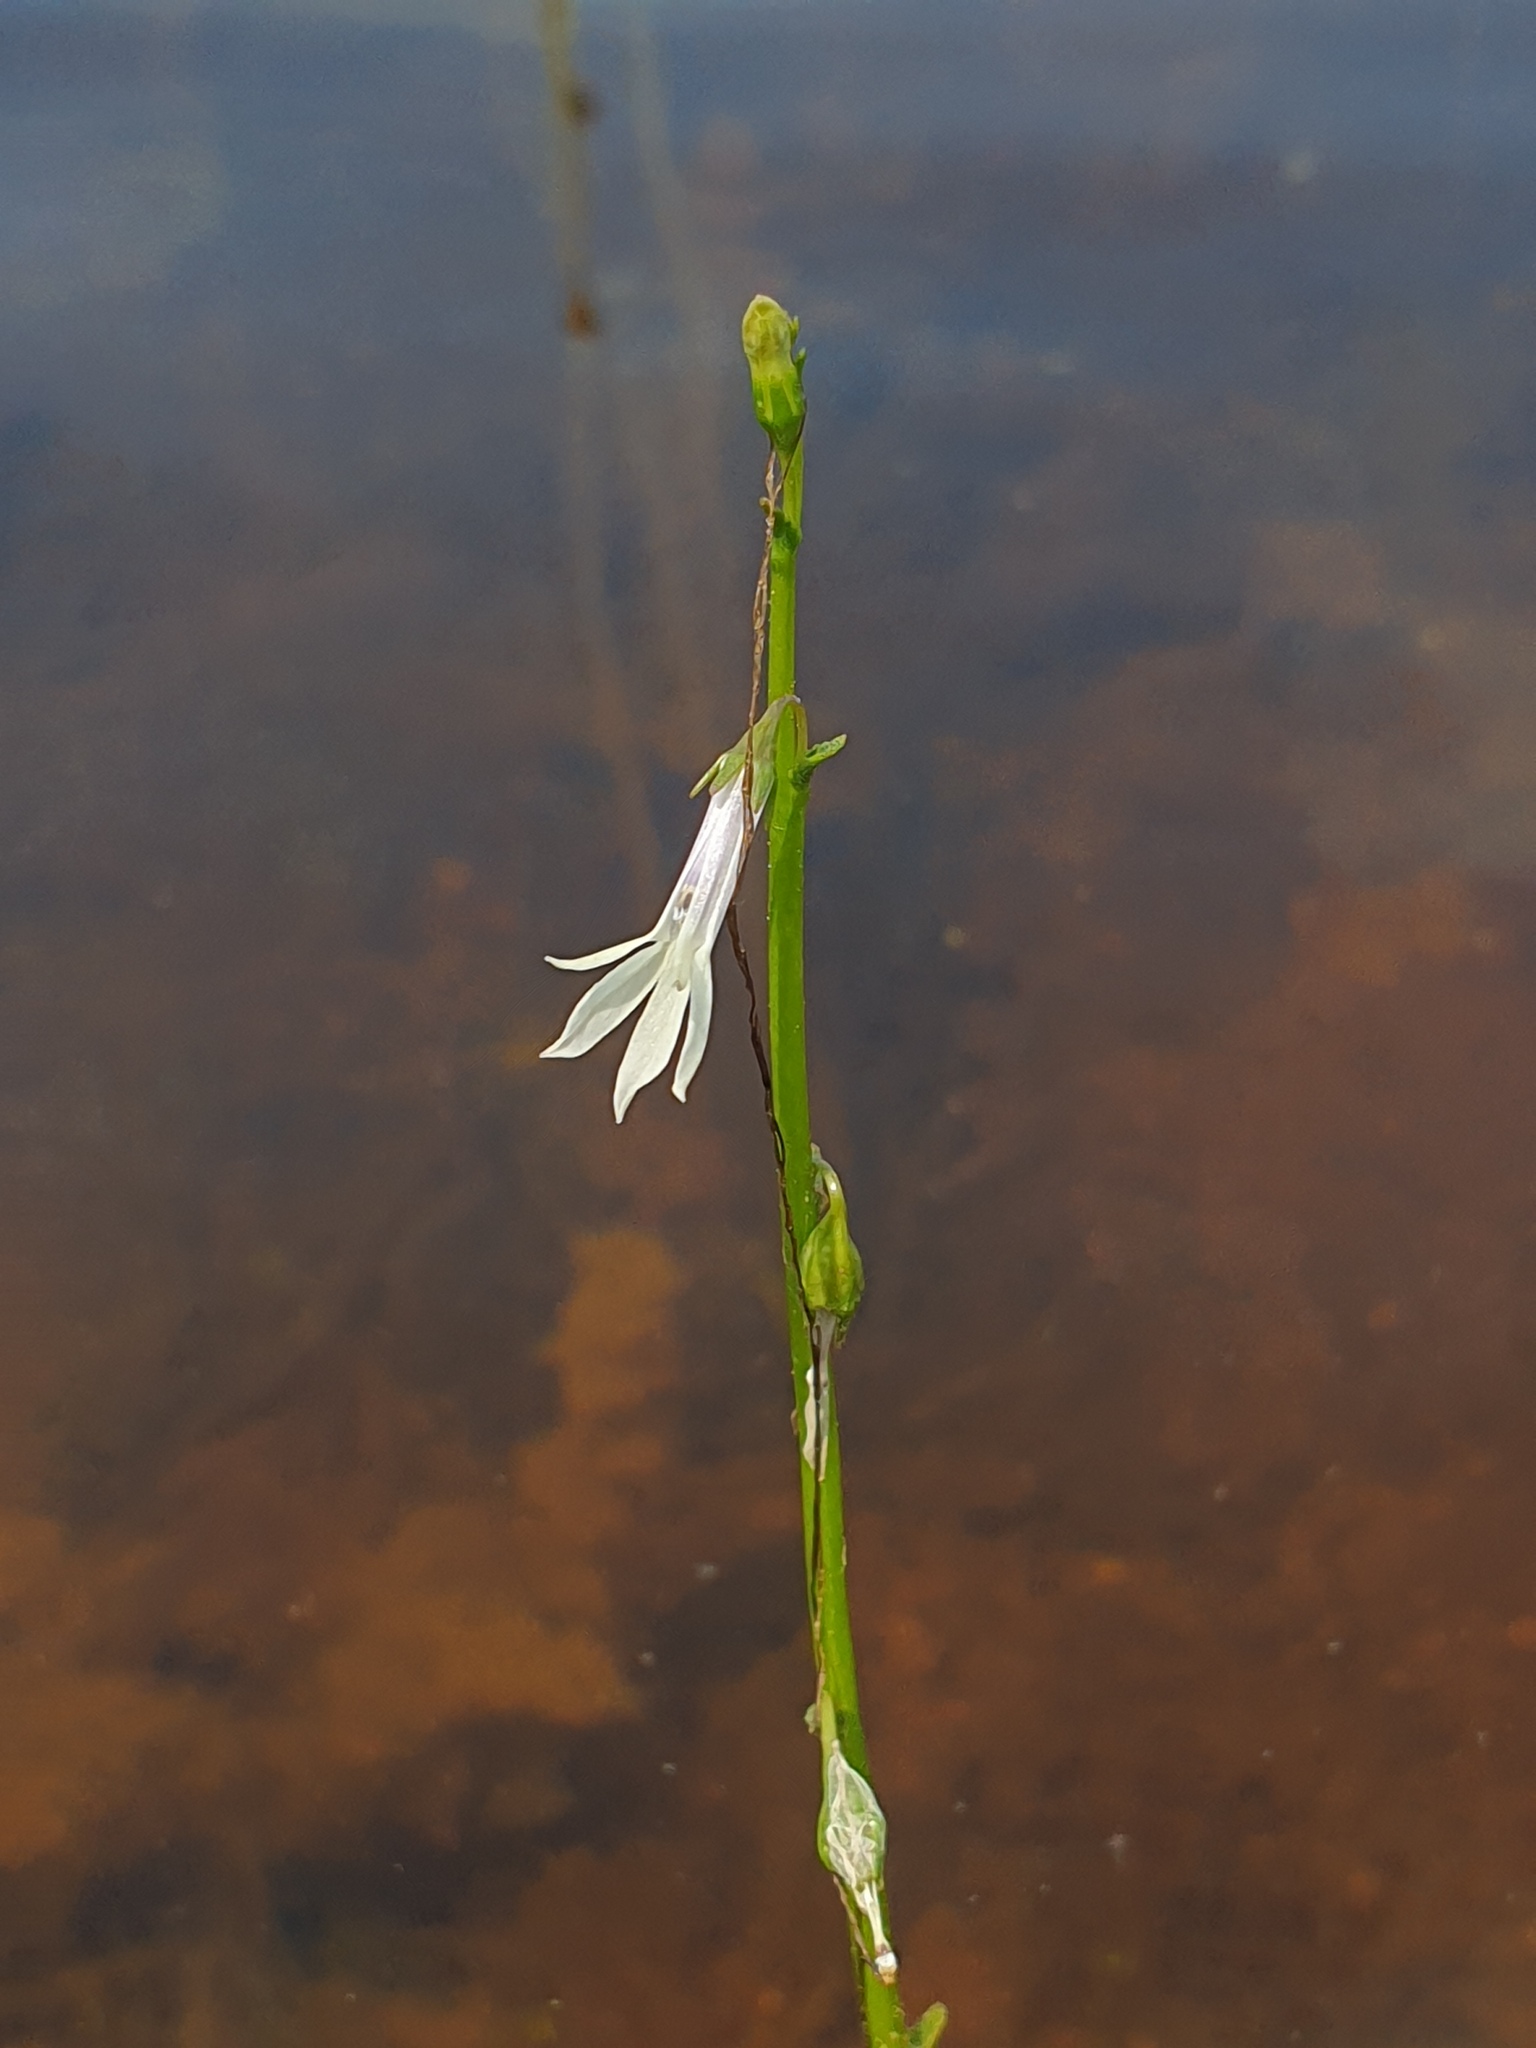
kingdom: Plantae
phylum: Tracheophyta
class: Magnoliopsida
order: Asterales
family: Campanulaceae
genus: Lobelia
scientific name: Lobelia dortmanna
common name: Water lobelia
